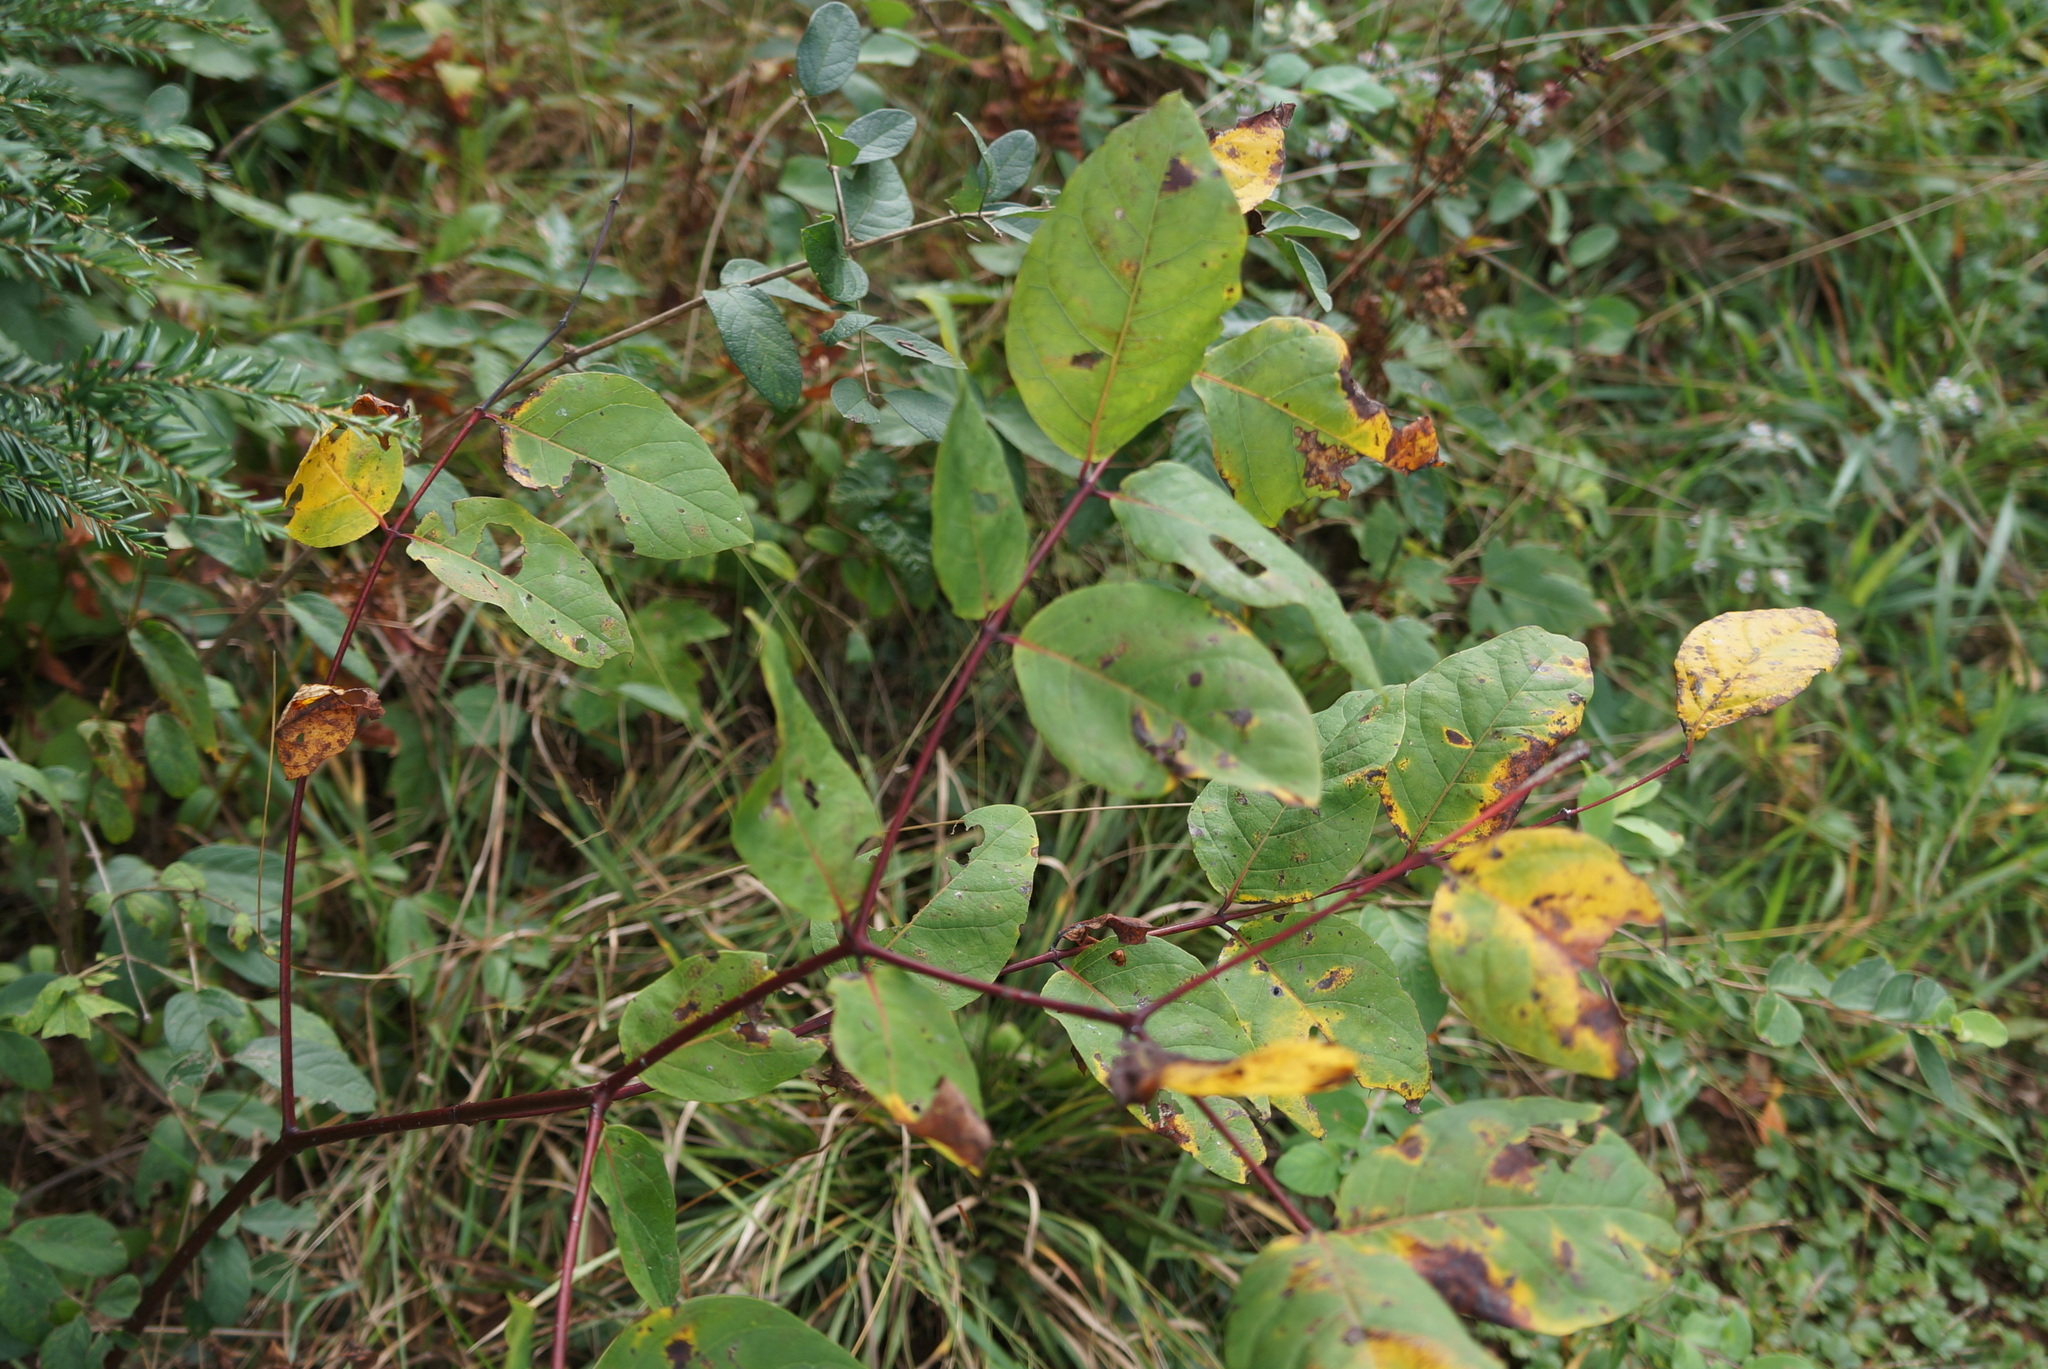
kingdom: Plantae
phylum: Tracheophyta
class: Magnoliopsida
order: Gentianales
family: Apocynaceae
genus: Apocynum
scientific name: Apocynum androsaemifolium
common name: Spreading dogbane
